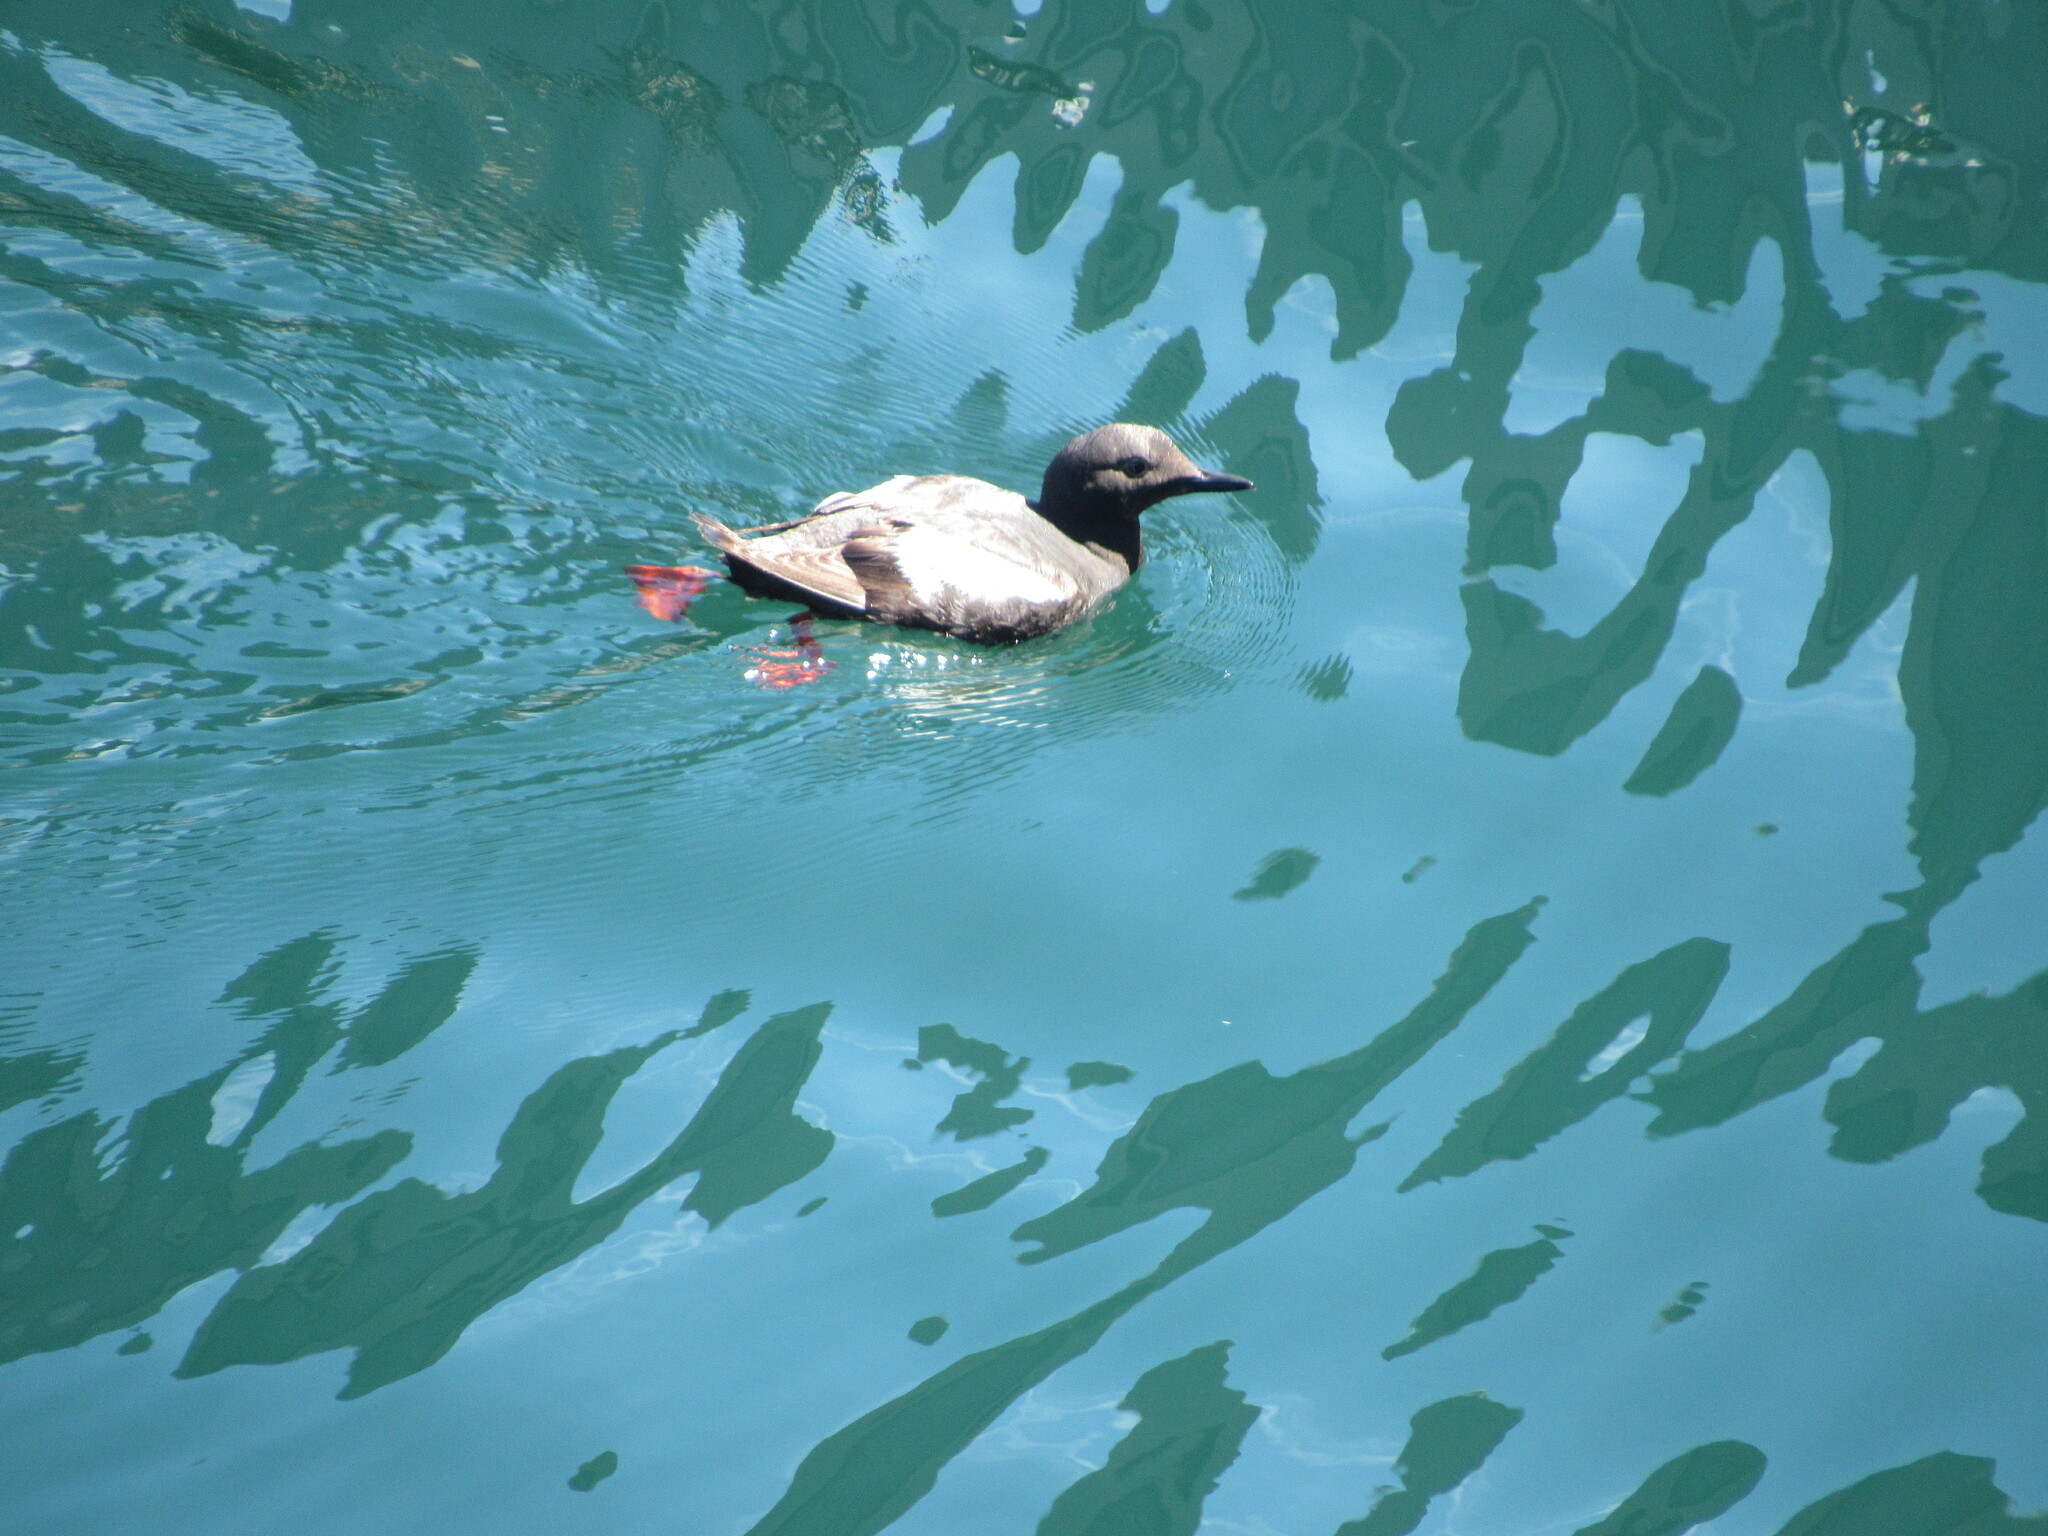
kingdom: Animalia
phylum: Chordata
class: Aves
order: Charadriiformes
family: Alcidae
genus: Cepphus
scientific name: Cepphus columba
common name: Pigeon guillemot
